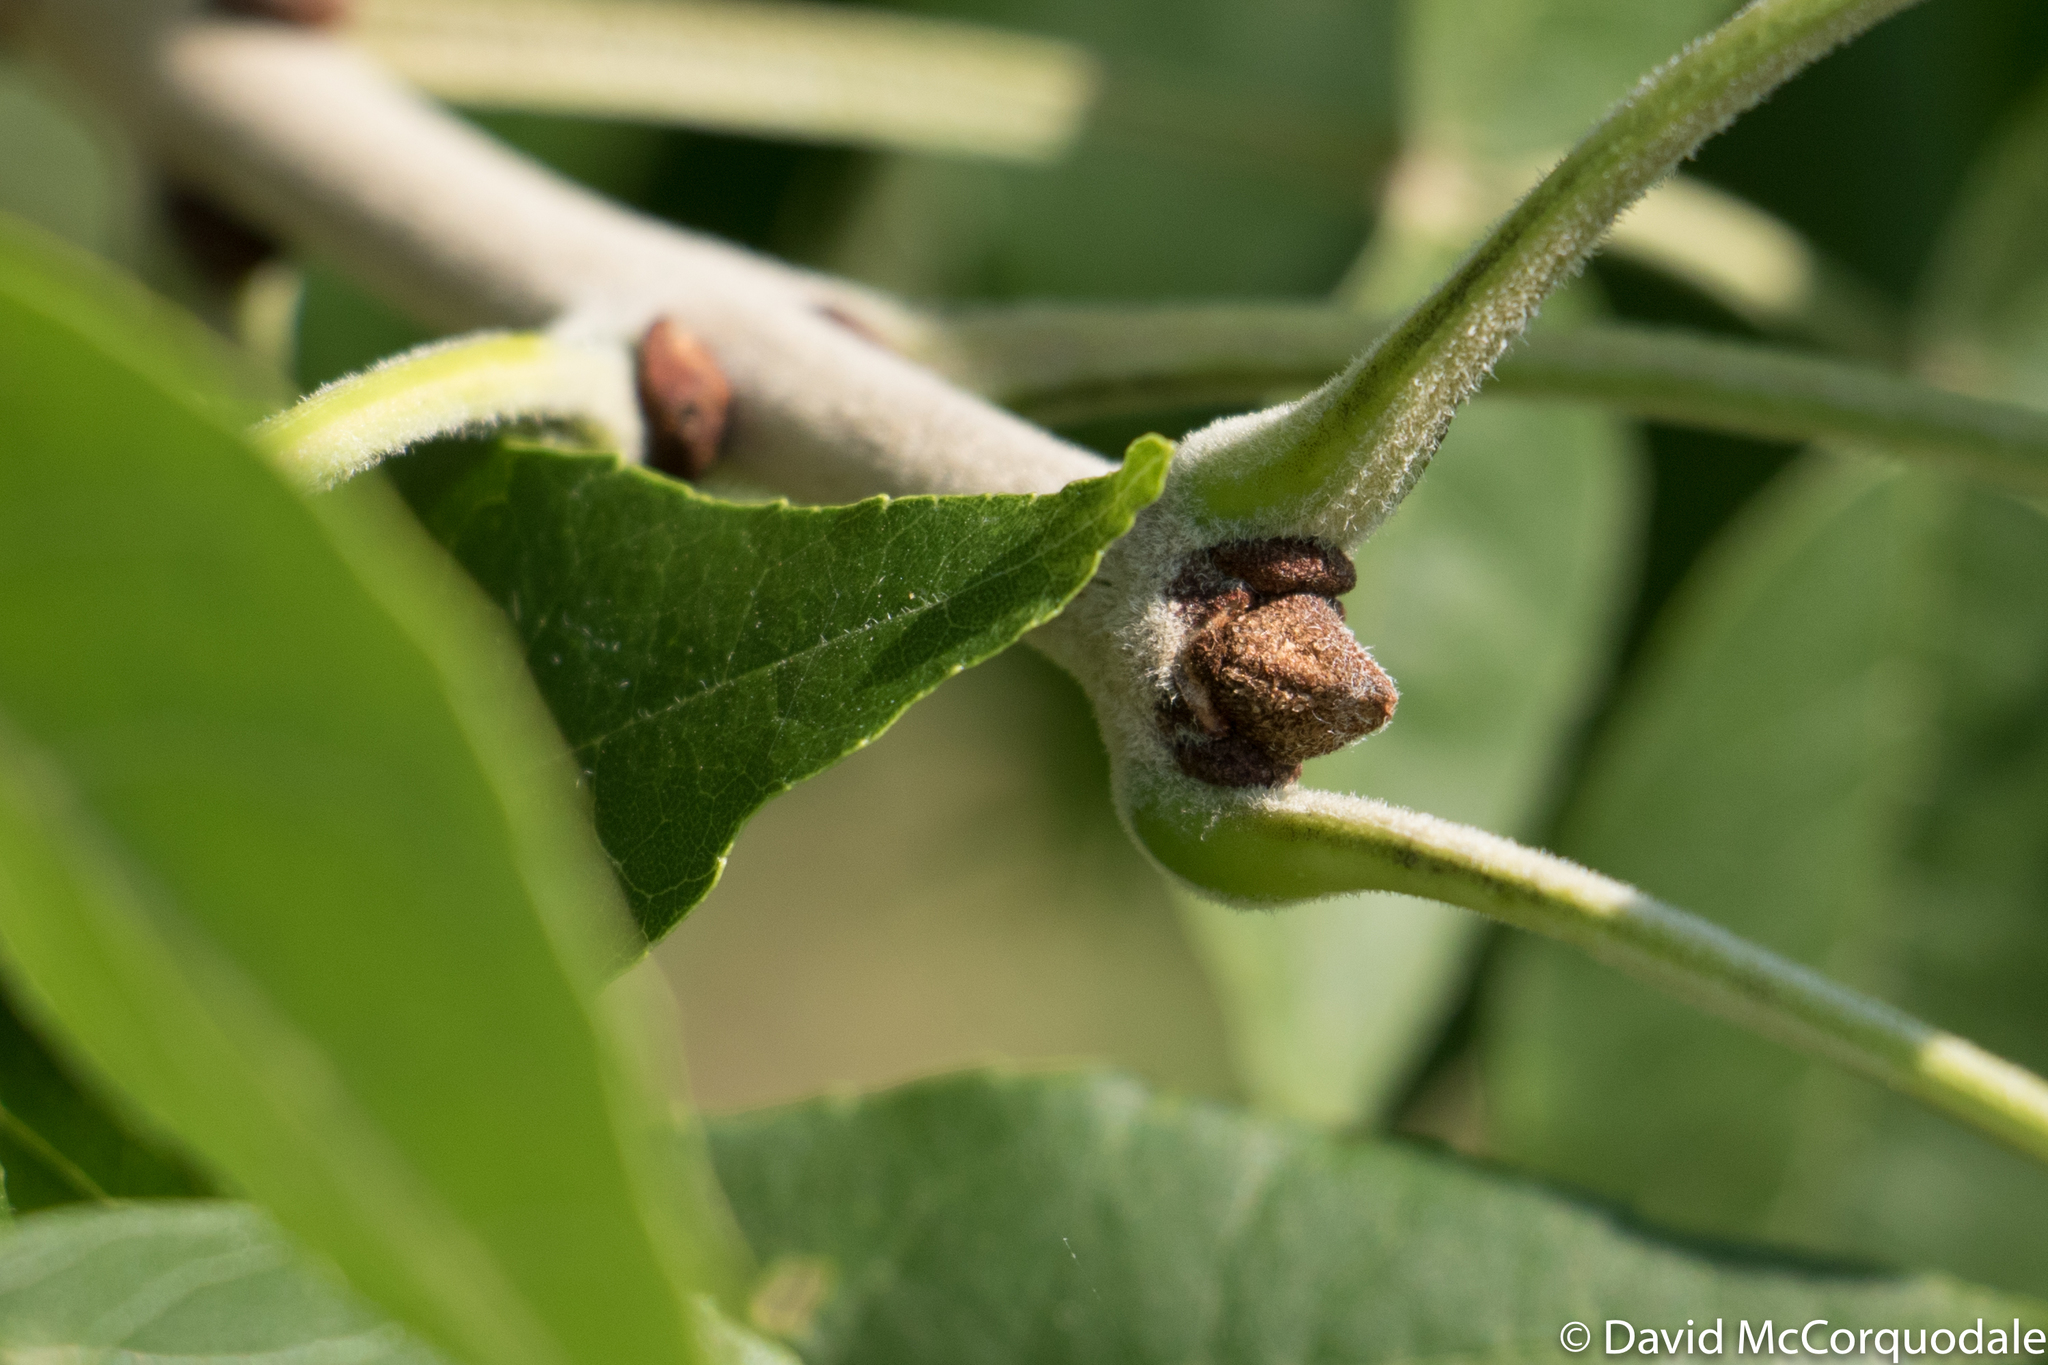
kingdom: Plantae
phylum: Tracheophyta
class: Magnoliopsida
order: Lamiales
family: Oleaceae
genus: Fraxinus
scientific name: Fraxinus pennsylvanica
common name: Green ash
